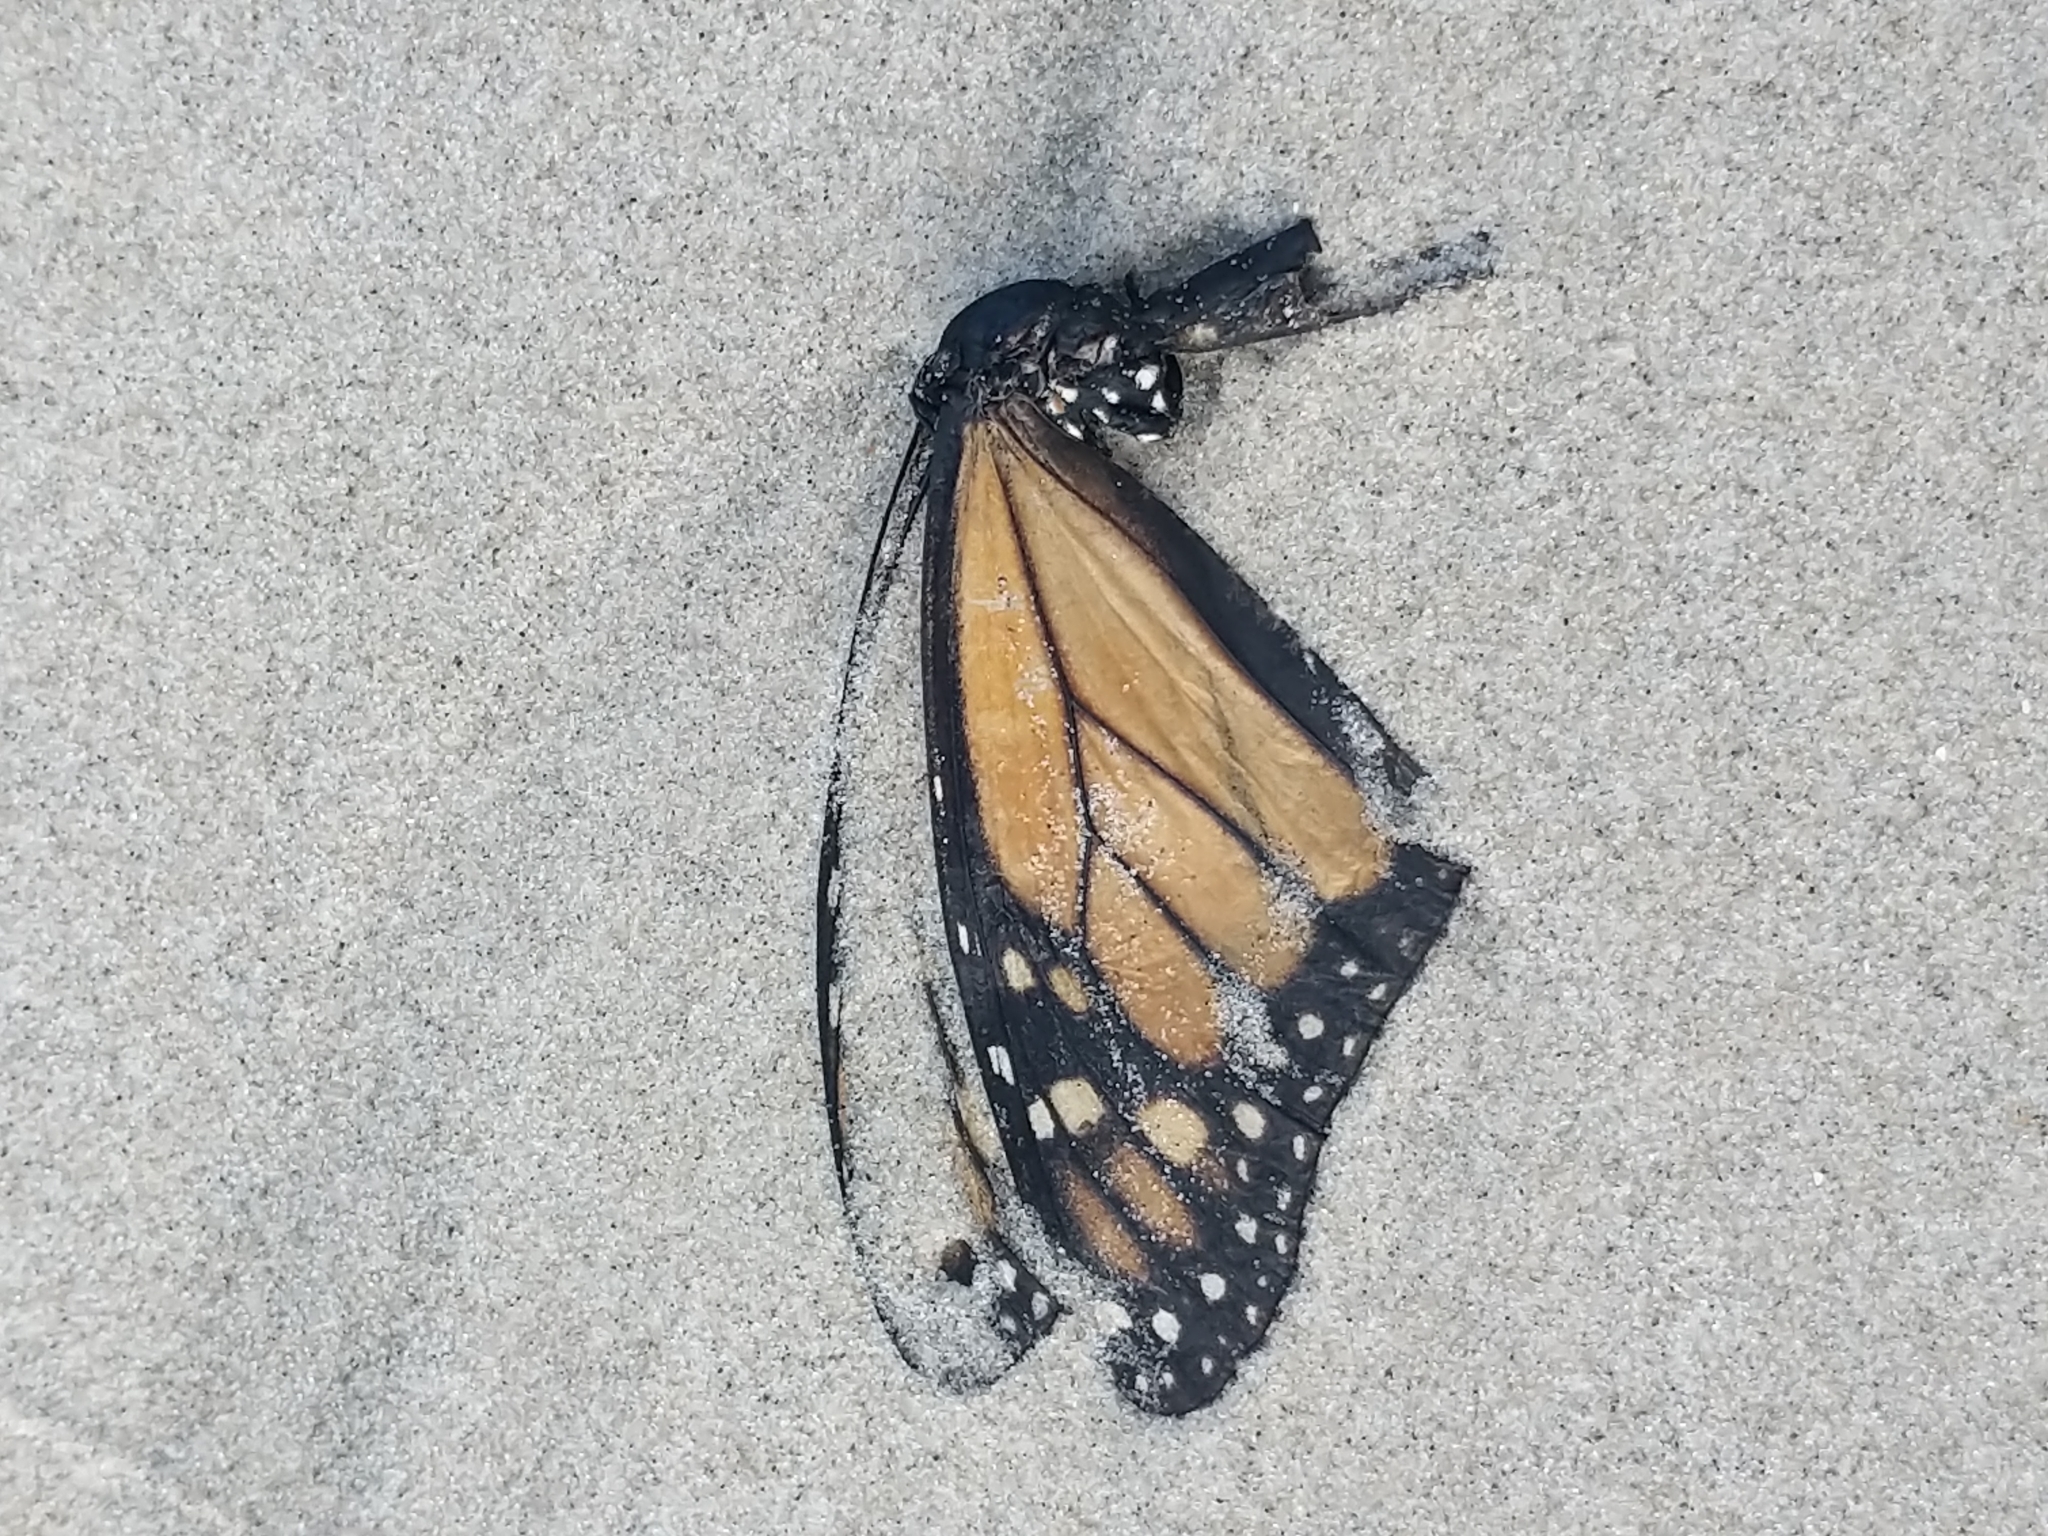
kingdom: Animalia
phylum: Arthropoda
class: Insecta
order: Lepidoptera
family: Nymphalidae
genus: Danaus
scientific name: Danaus plexippus
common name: Monarch
